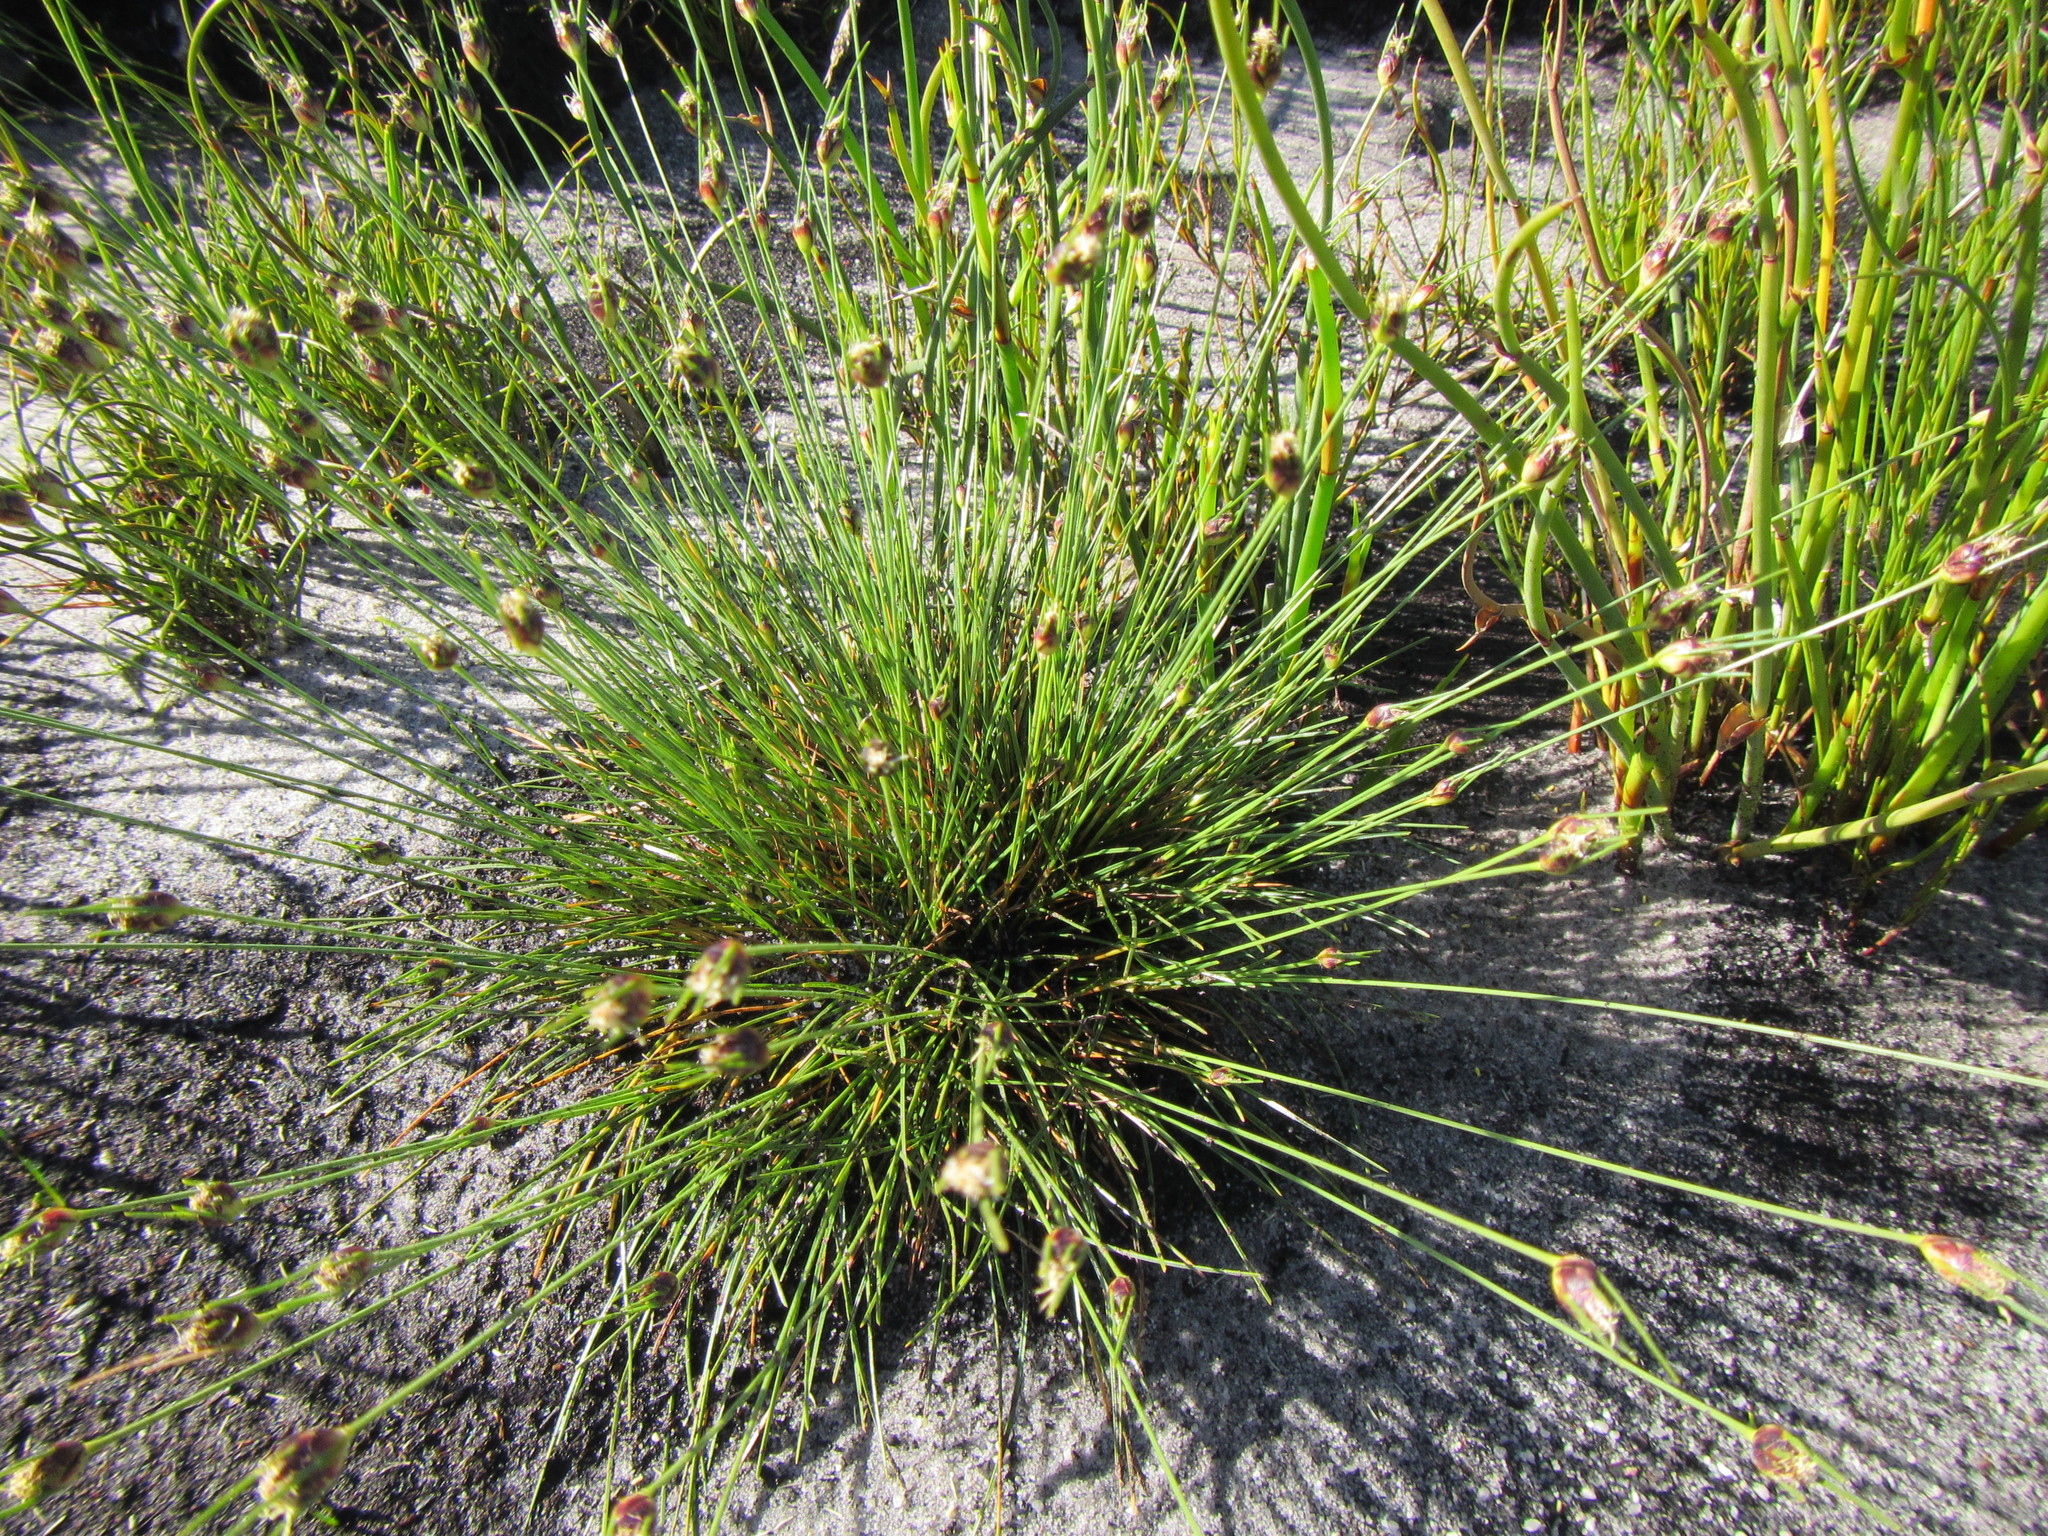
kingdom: Plantae
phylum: Tracheophyta
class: Liliopsida
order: Poales
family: Cyperaceae
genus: Ficinia
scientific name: Ficinia capitella
